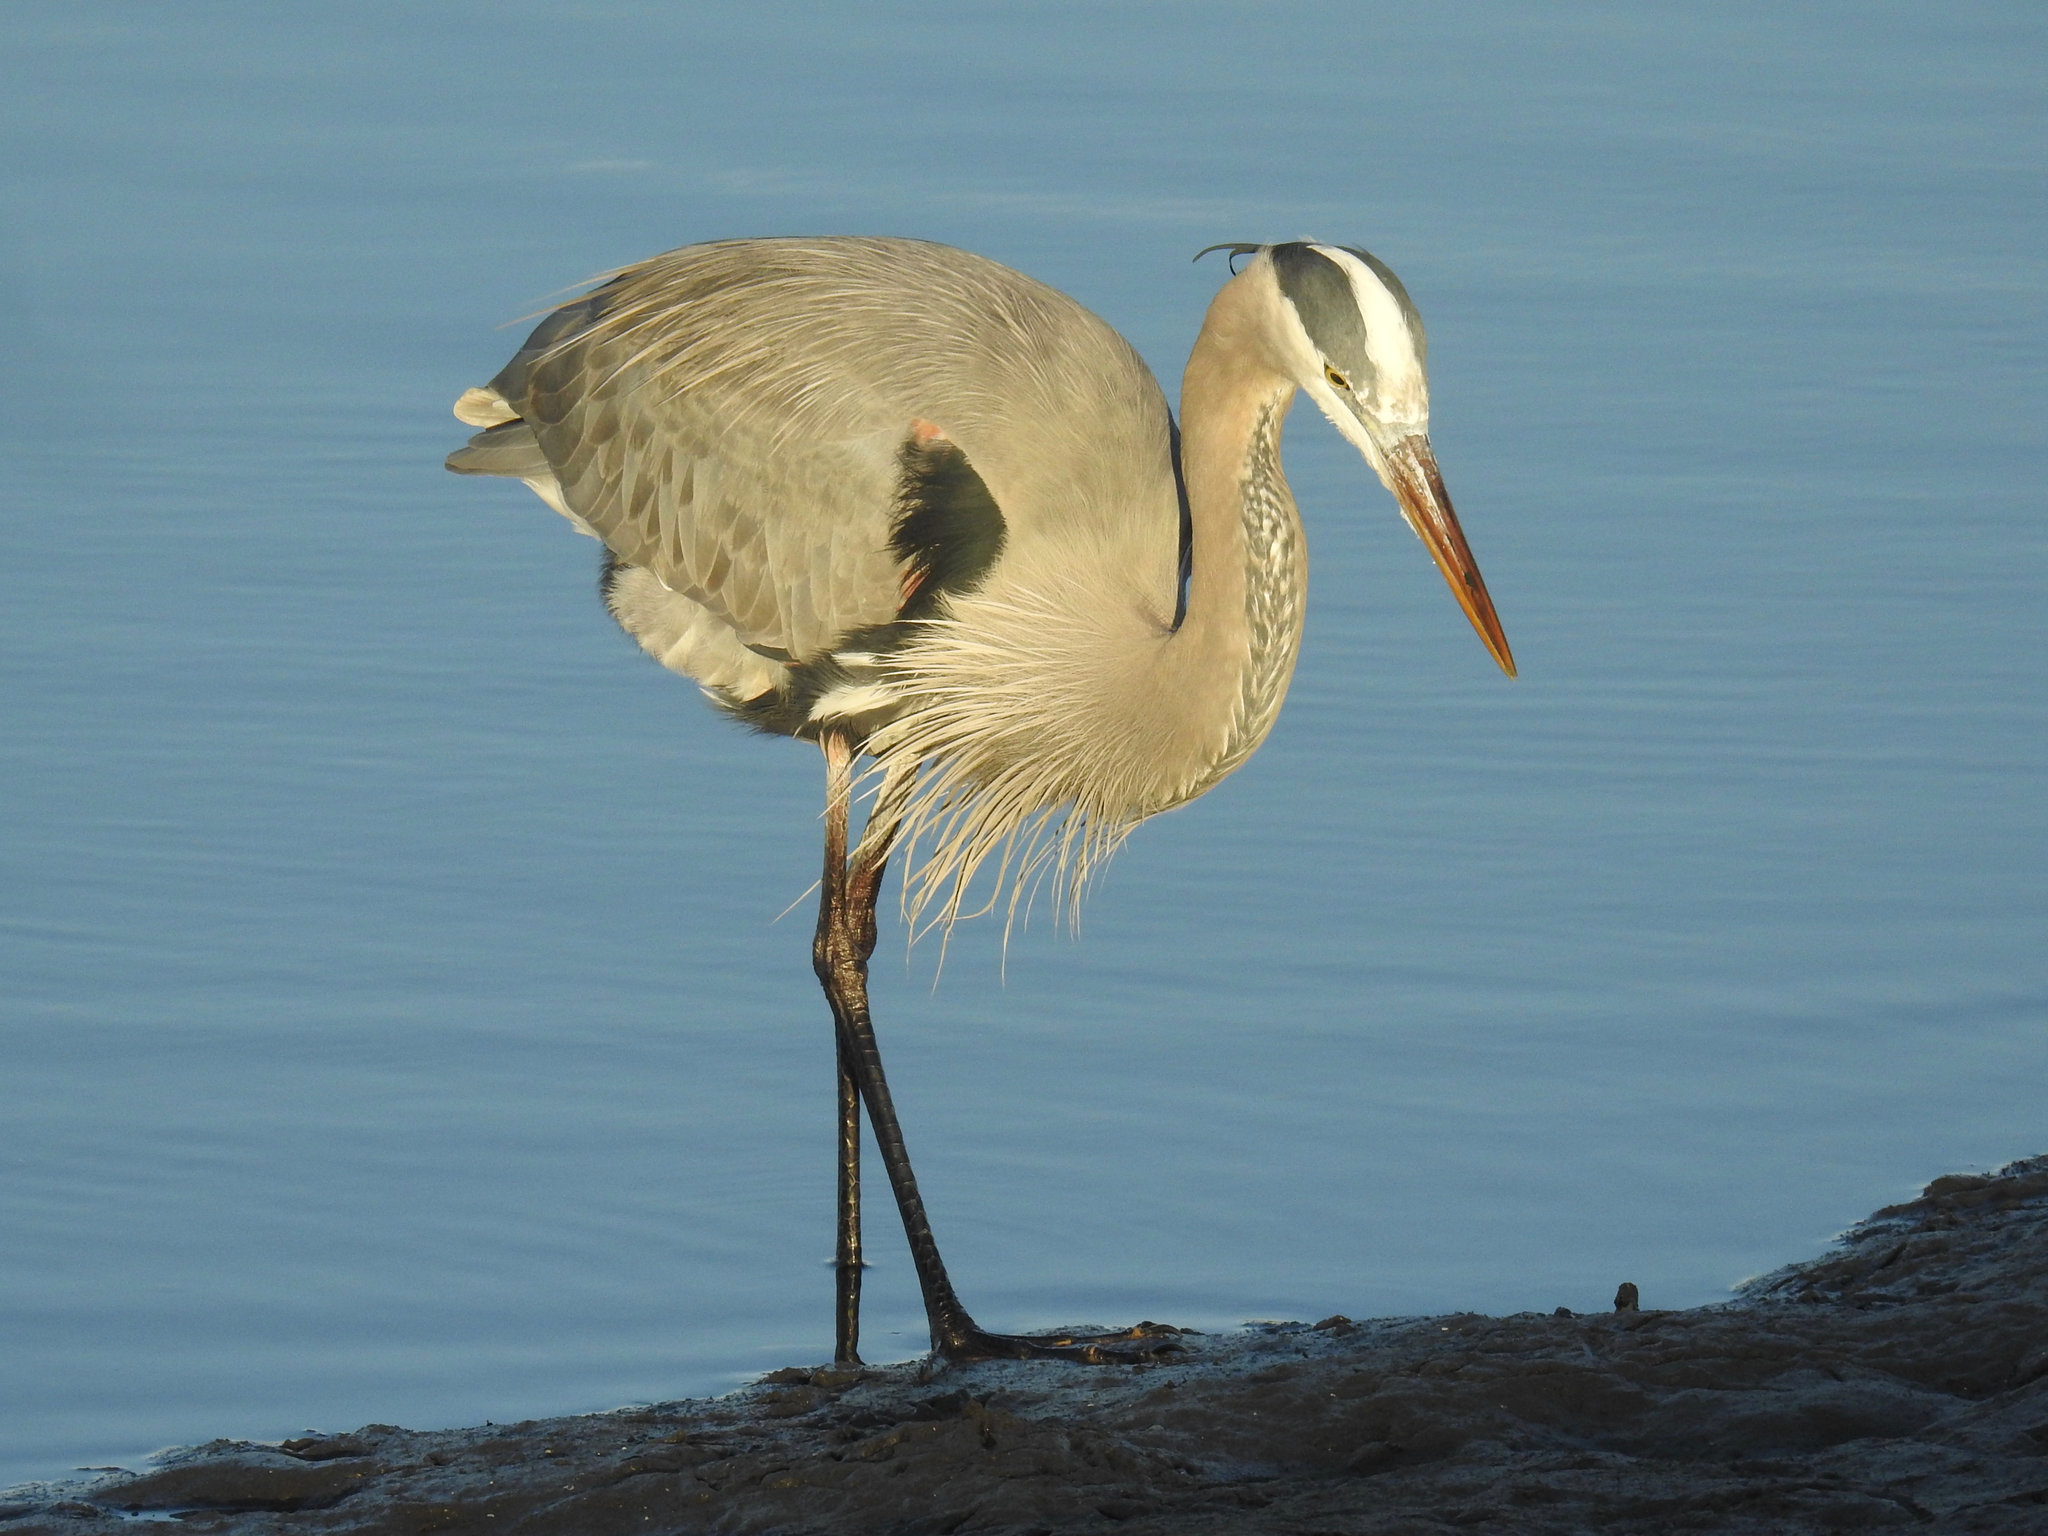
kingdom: Animalia
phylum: Chordata
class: Aves
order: Pelecaniformes
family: Ardeidae
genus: Ardea
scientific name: Ardea herodias
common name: Great blue heron
